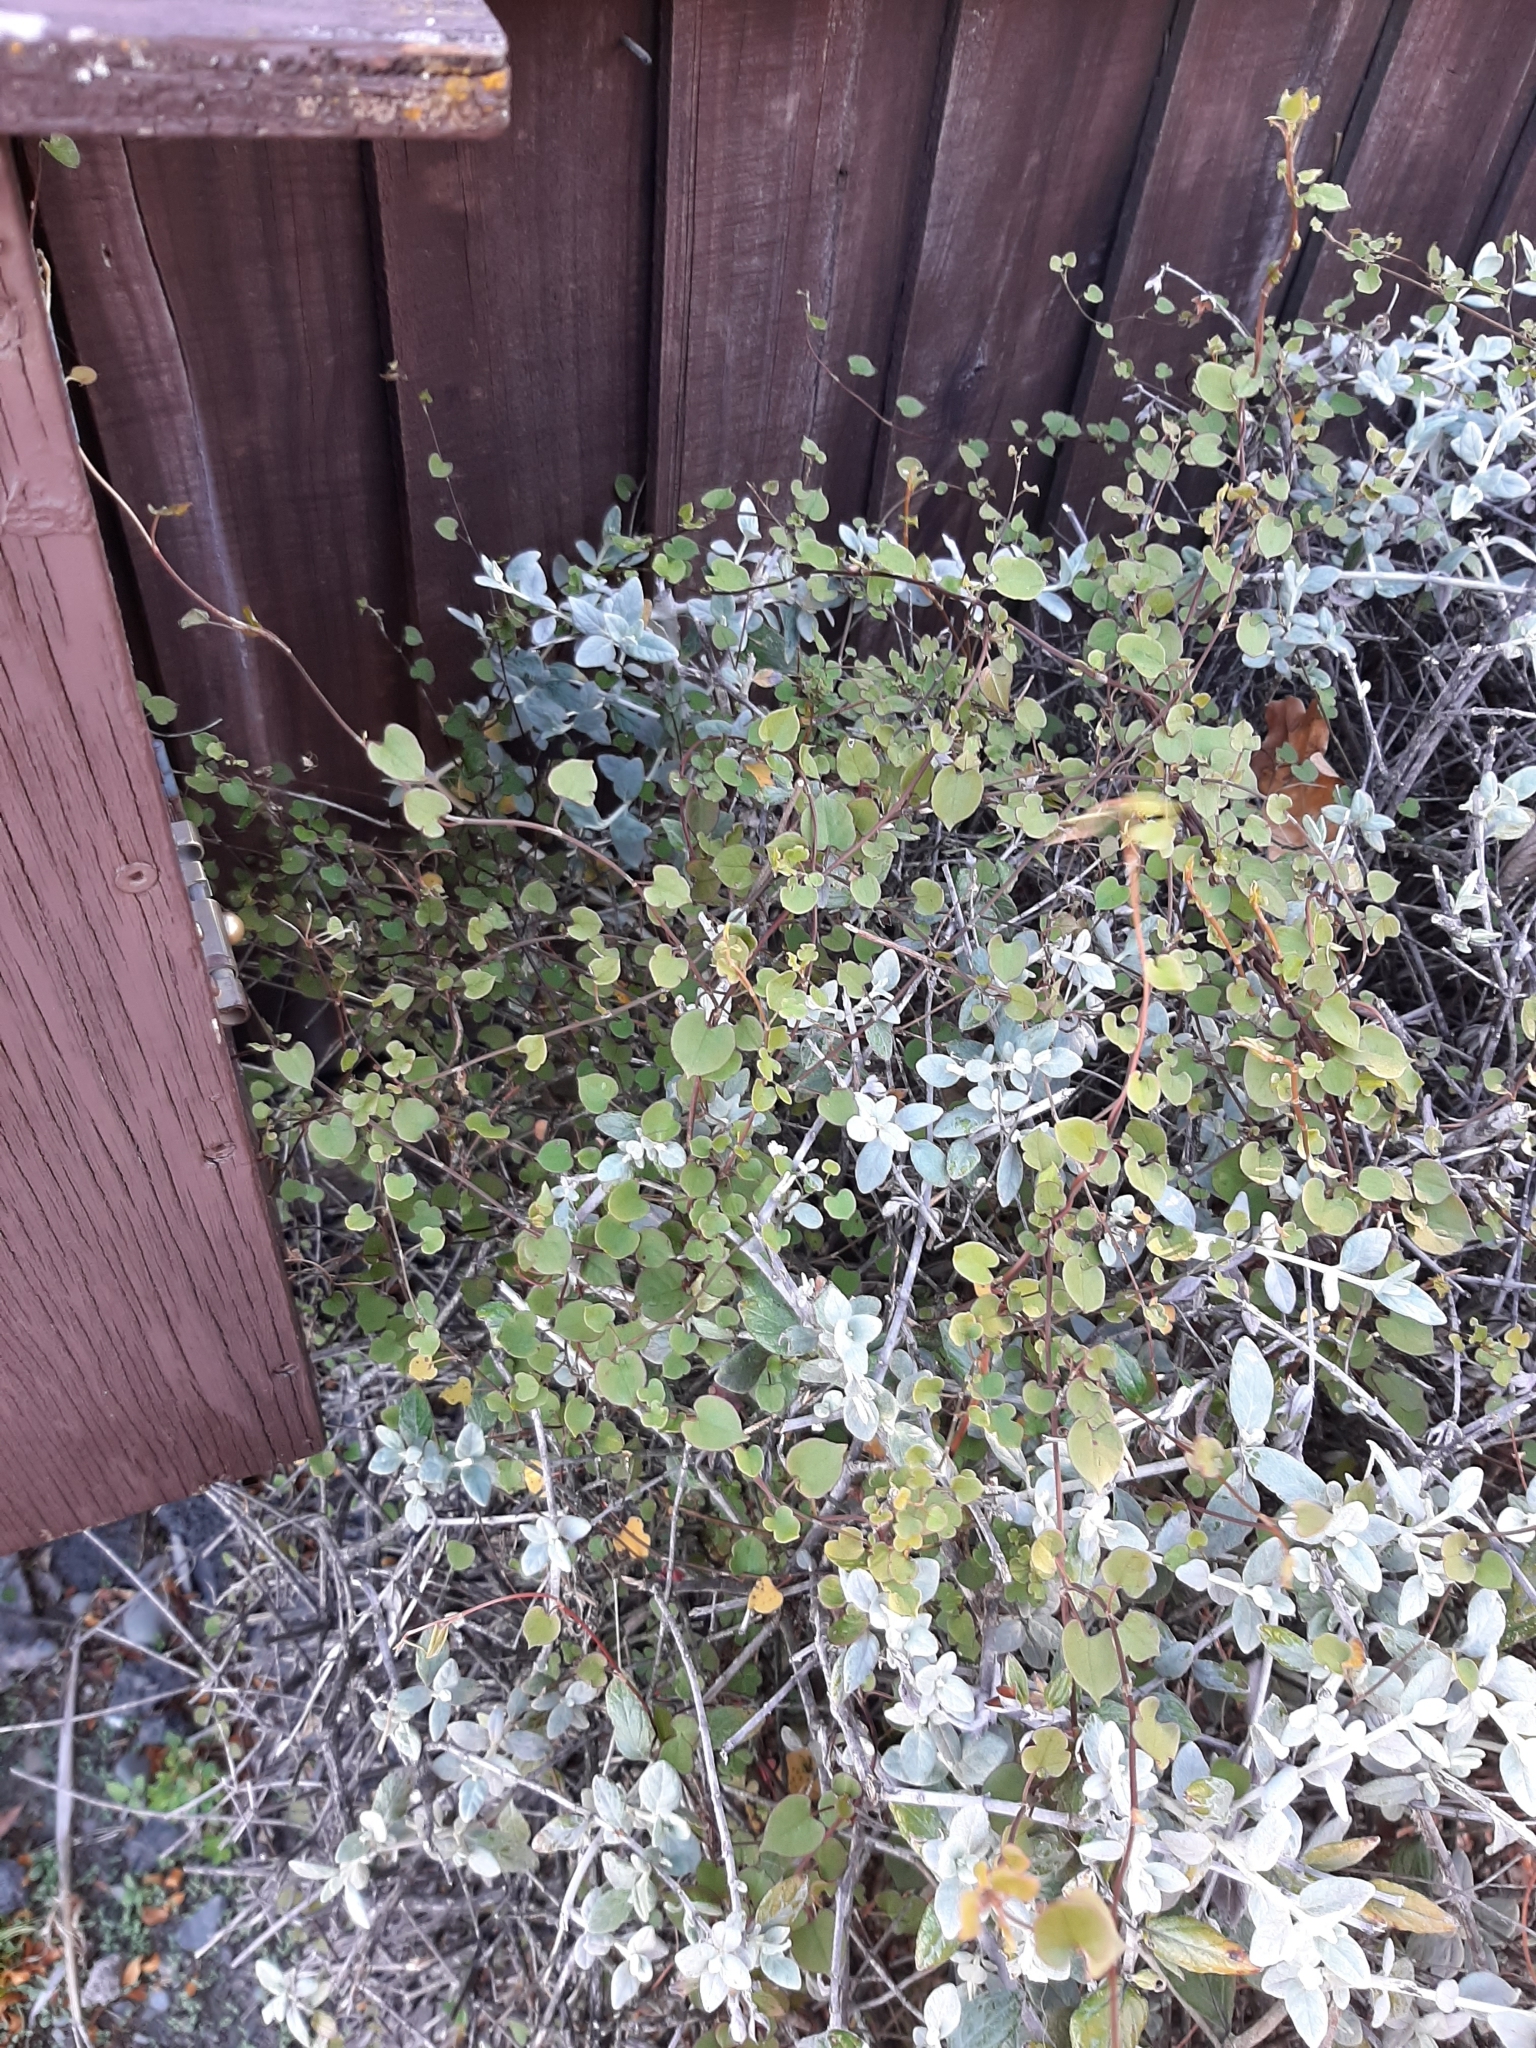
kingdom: Plantae
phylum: Tracheophyta
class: Magnoliopsida
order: Caryophyllales
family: Polygonaceae
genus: Muehlenbeckia
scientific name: Muehlenbeckia australis
